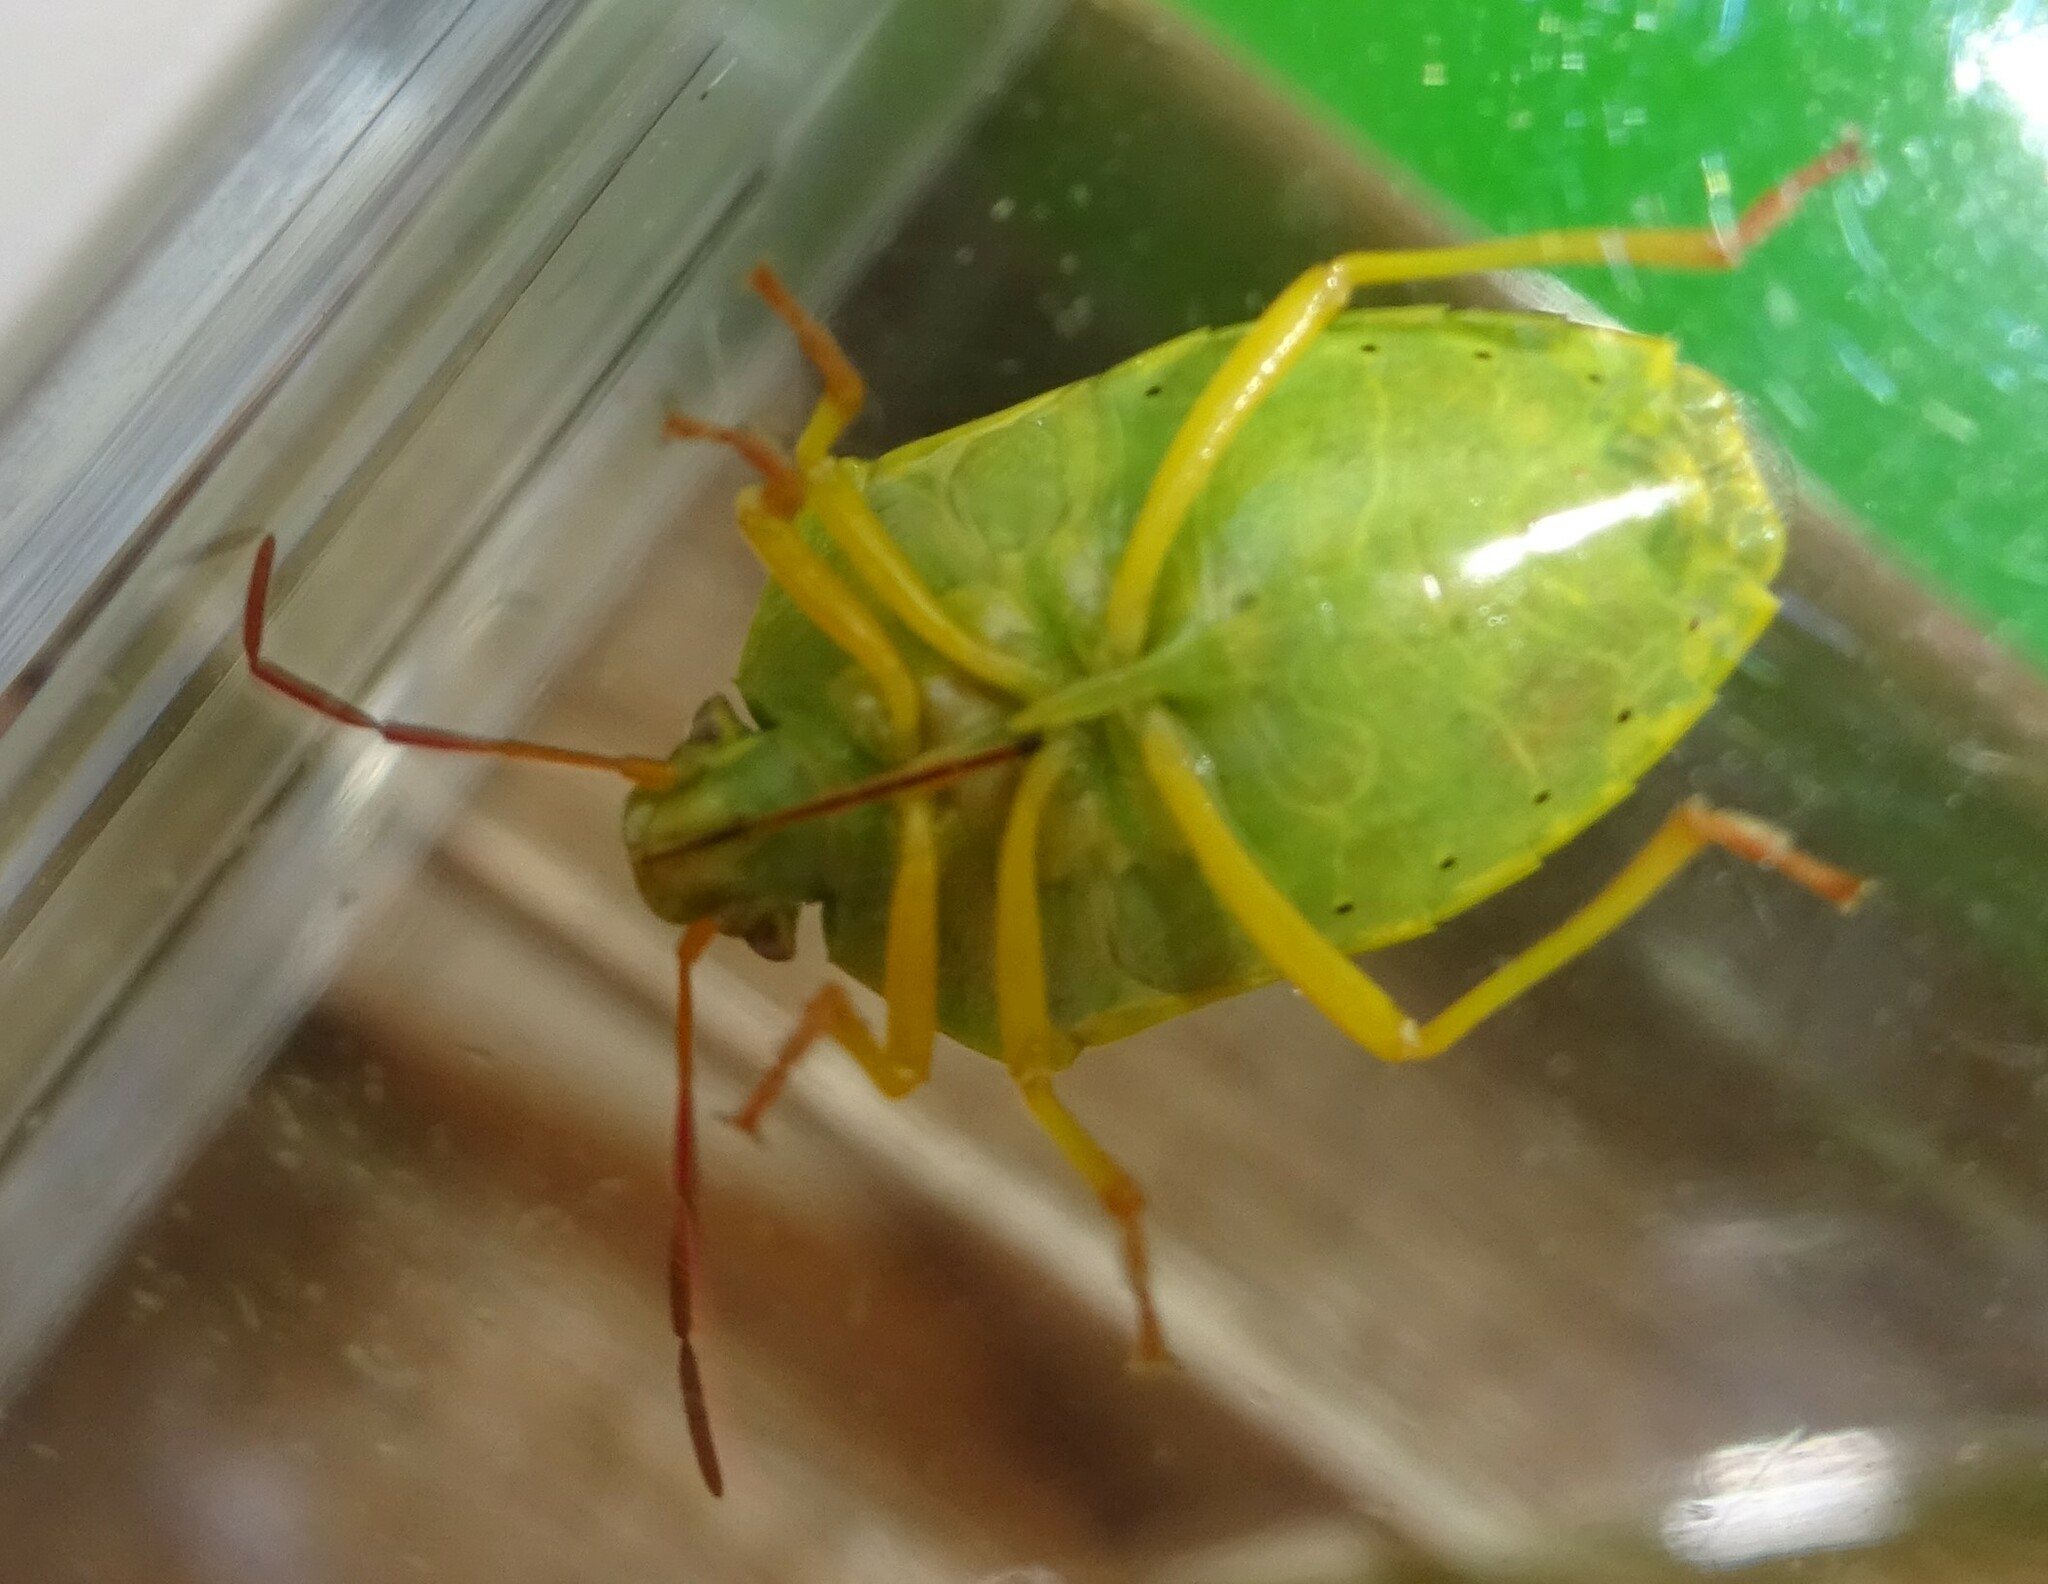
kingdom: Animalia
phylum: Arthropoda
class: Insecta
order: Hemiptera
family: Pentatomidae
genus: Piezodorus
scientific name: Piezodorus lituratus
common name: Stink bug
